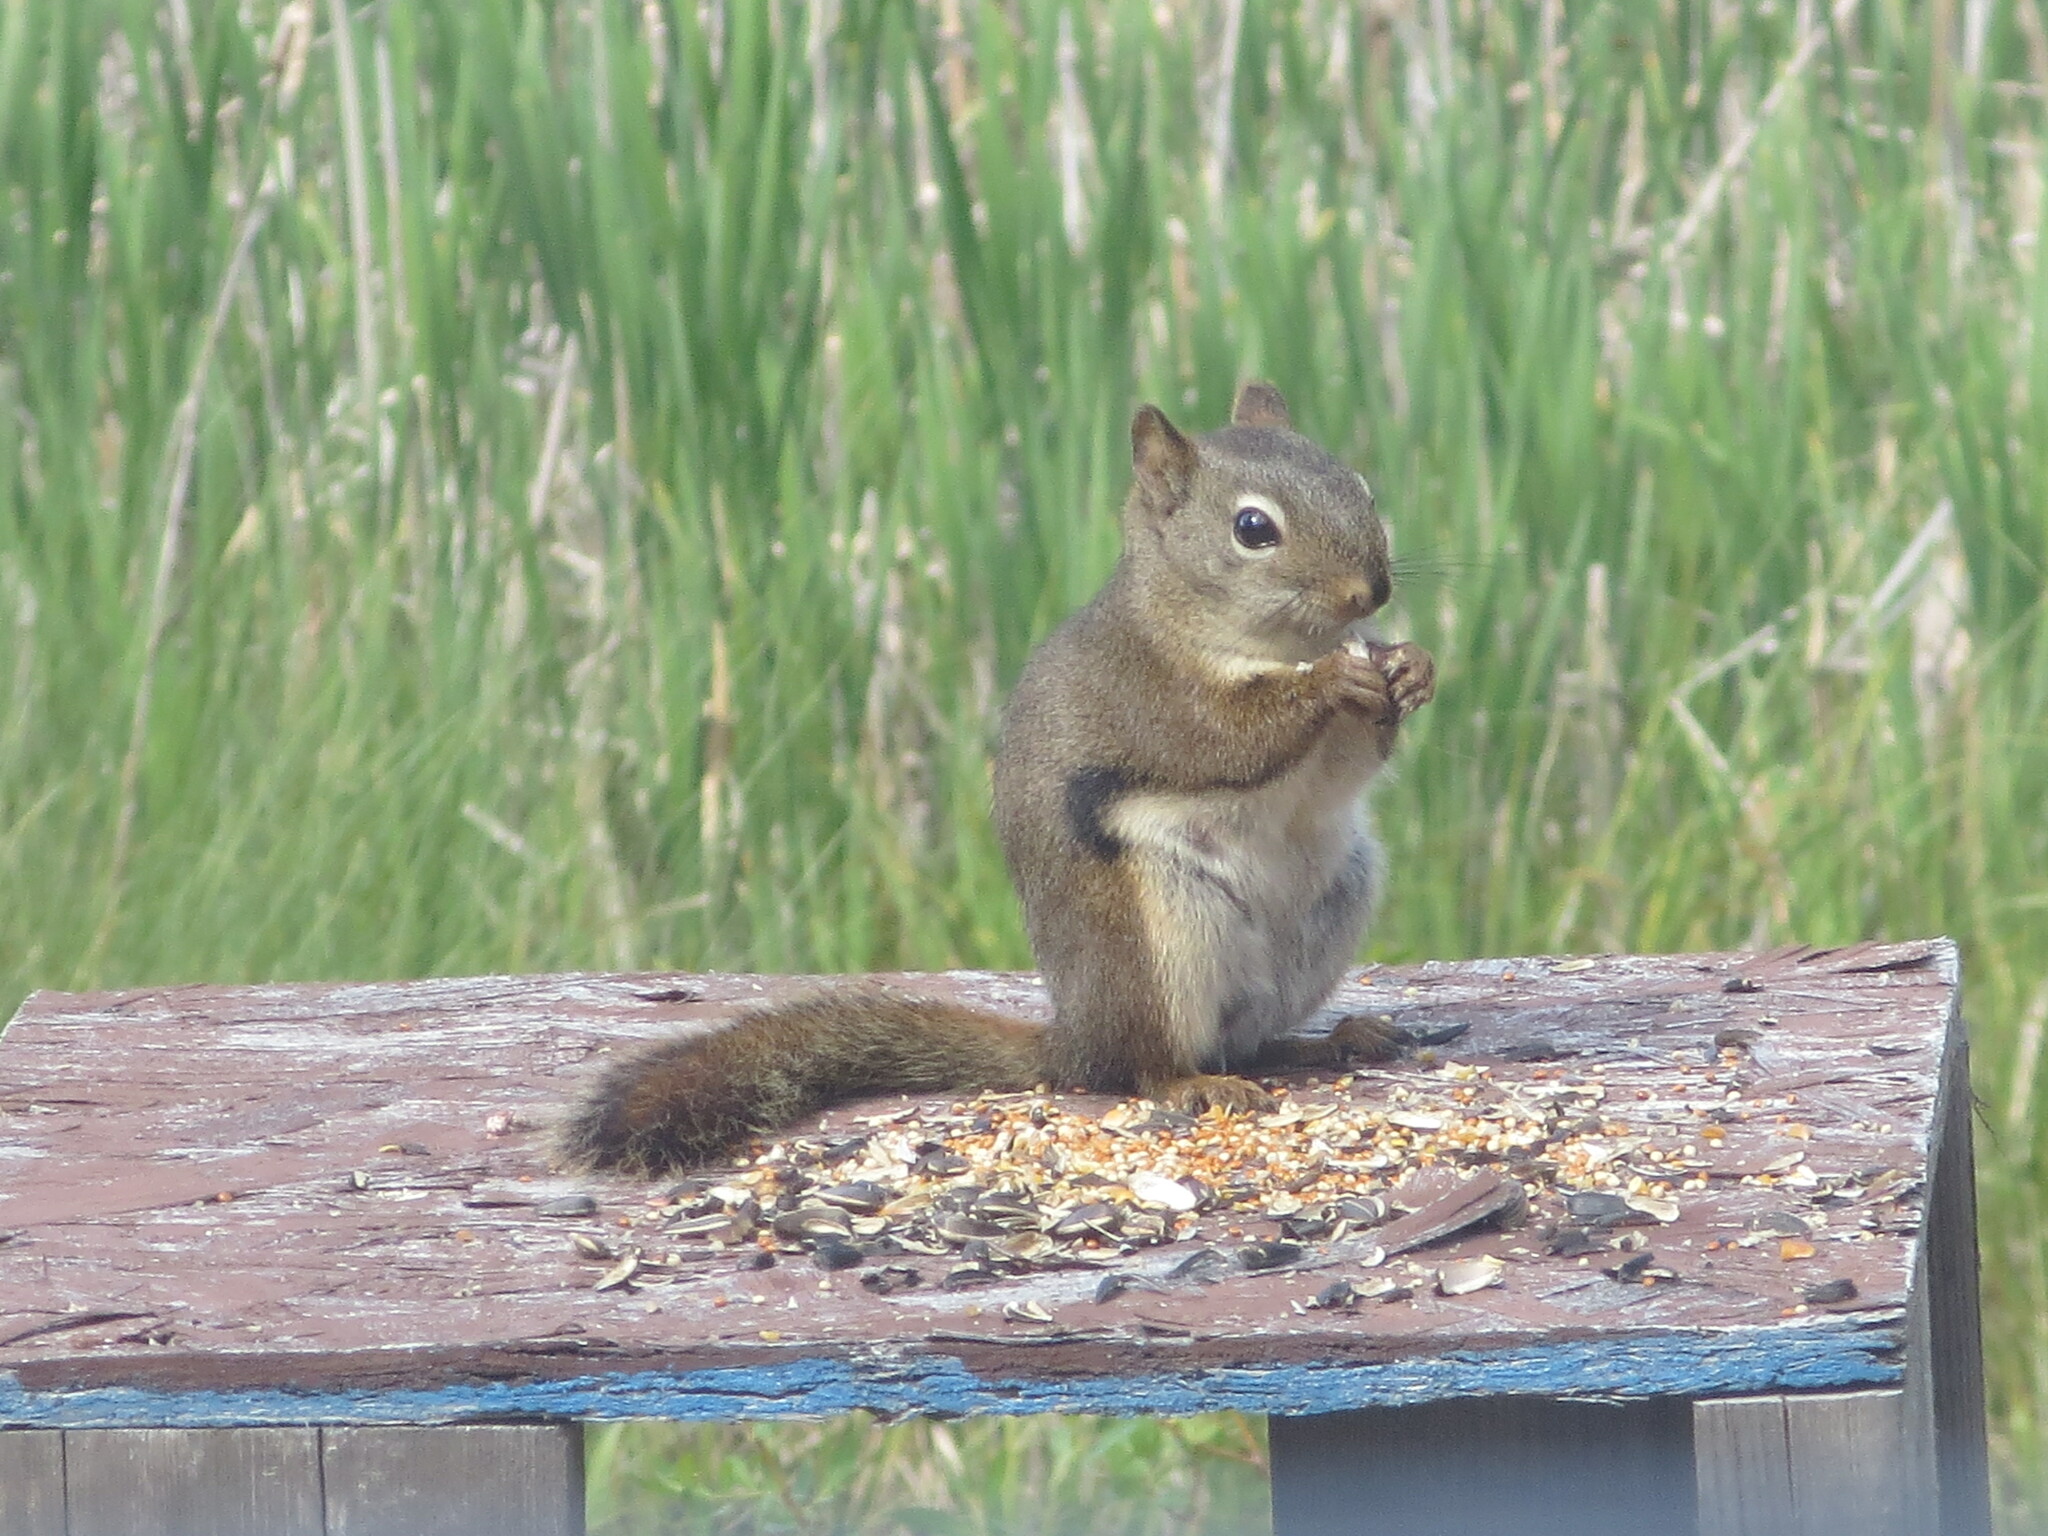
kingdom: Animalia
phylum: Chordata
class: Mammalia
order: Rodentia
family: Sciuridae
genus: Tamiasciurus
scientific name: Tamiasciurus hudsonicus
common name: Red squirrel
